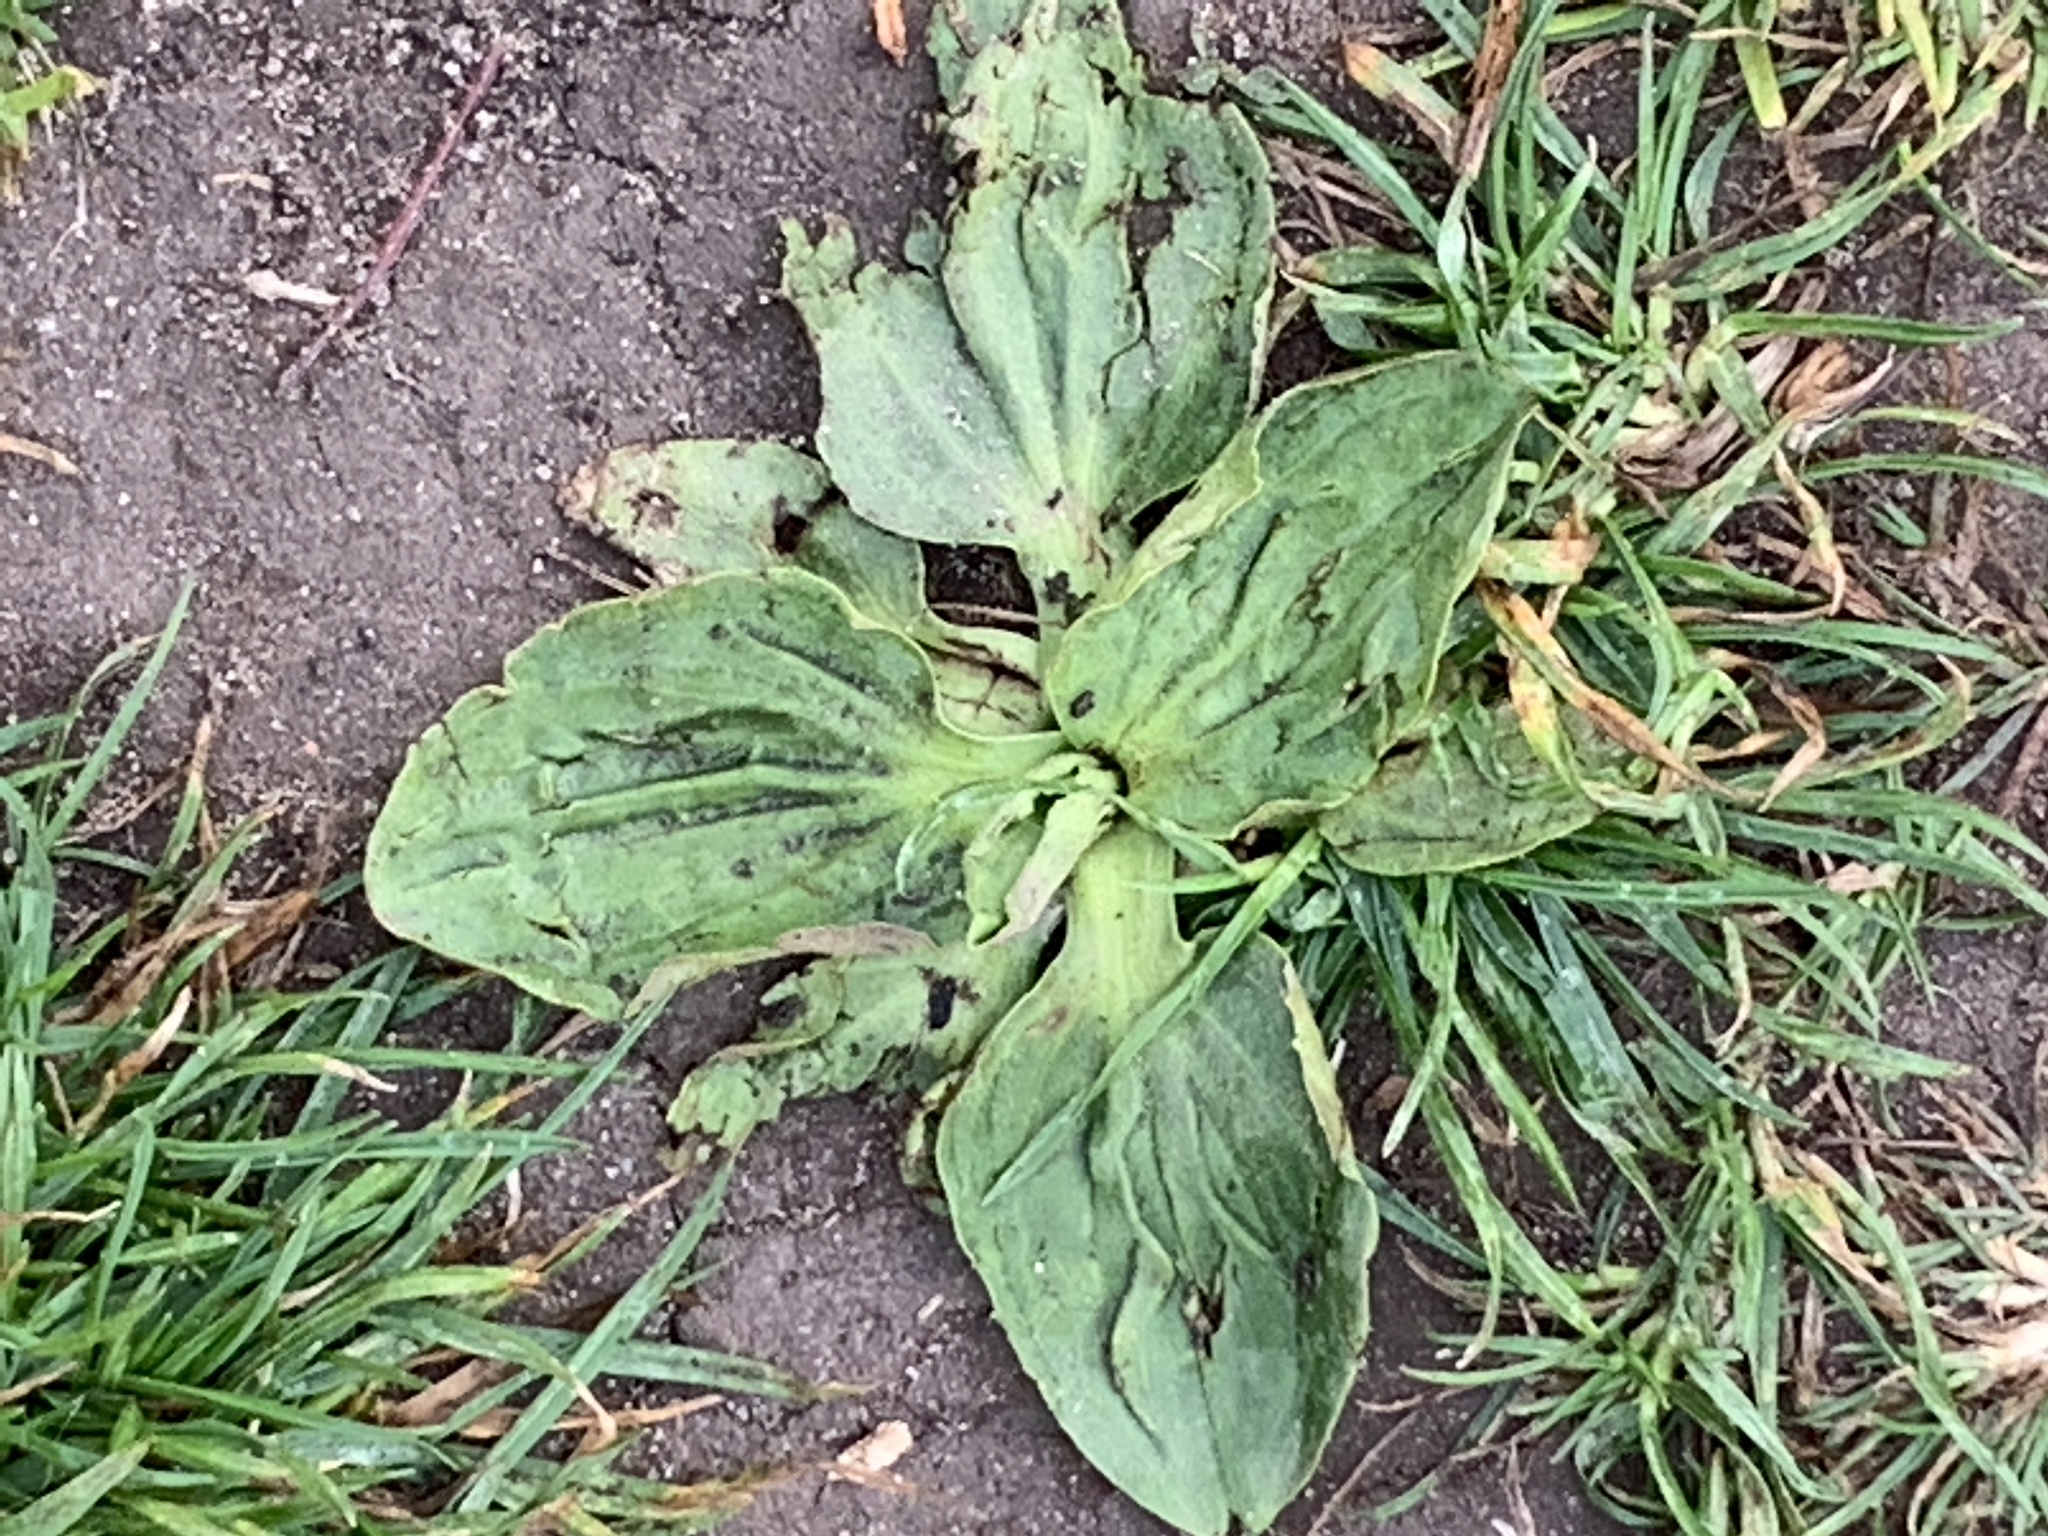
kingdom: Plantae
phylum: Tracheophyta
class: Magnoliopsida
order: Lamiales
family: Plantaginaceae
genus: Plantago
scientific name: Plantago major
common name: Common plantain
